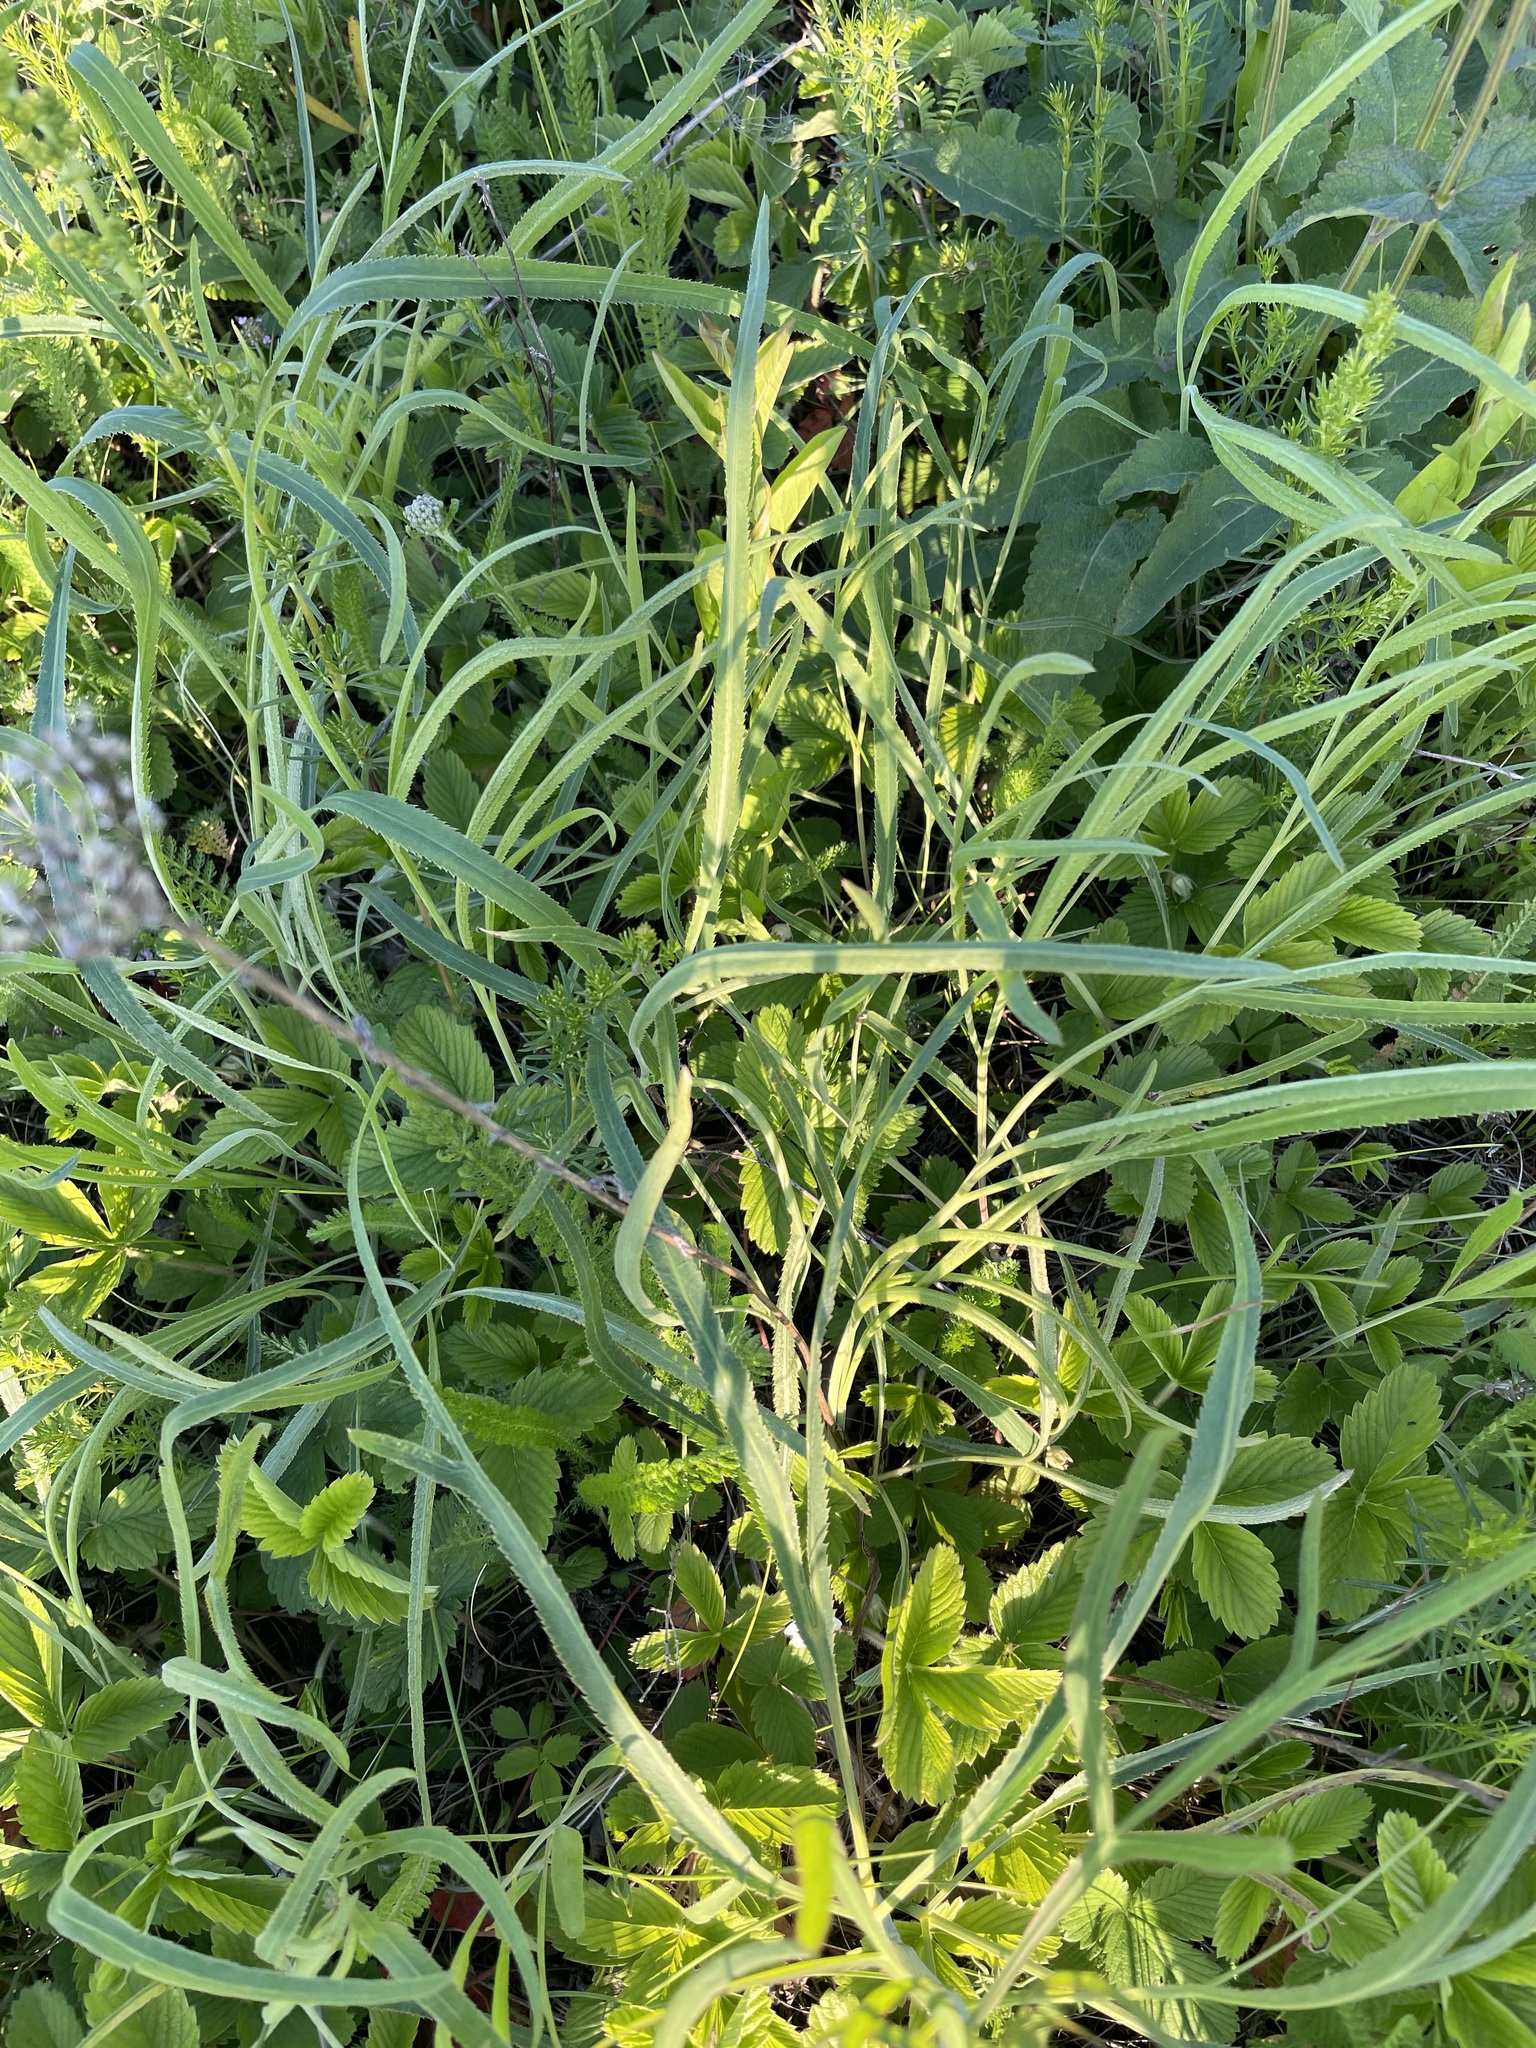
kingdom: Plantae
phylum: Tracheophyta
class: Magnoliopsida
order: Apiales
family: Apiaceae
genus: Falcaria
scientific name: Falcaria vulgaris
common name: Longleaf
